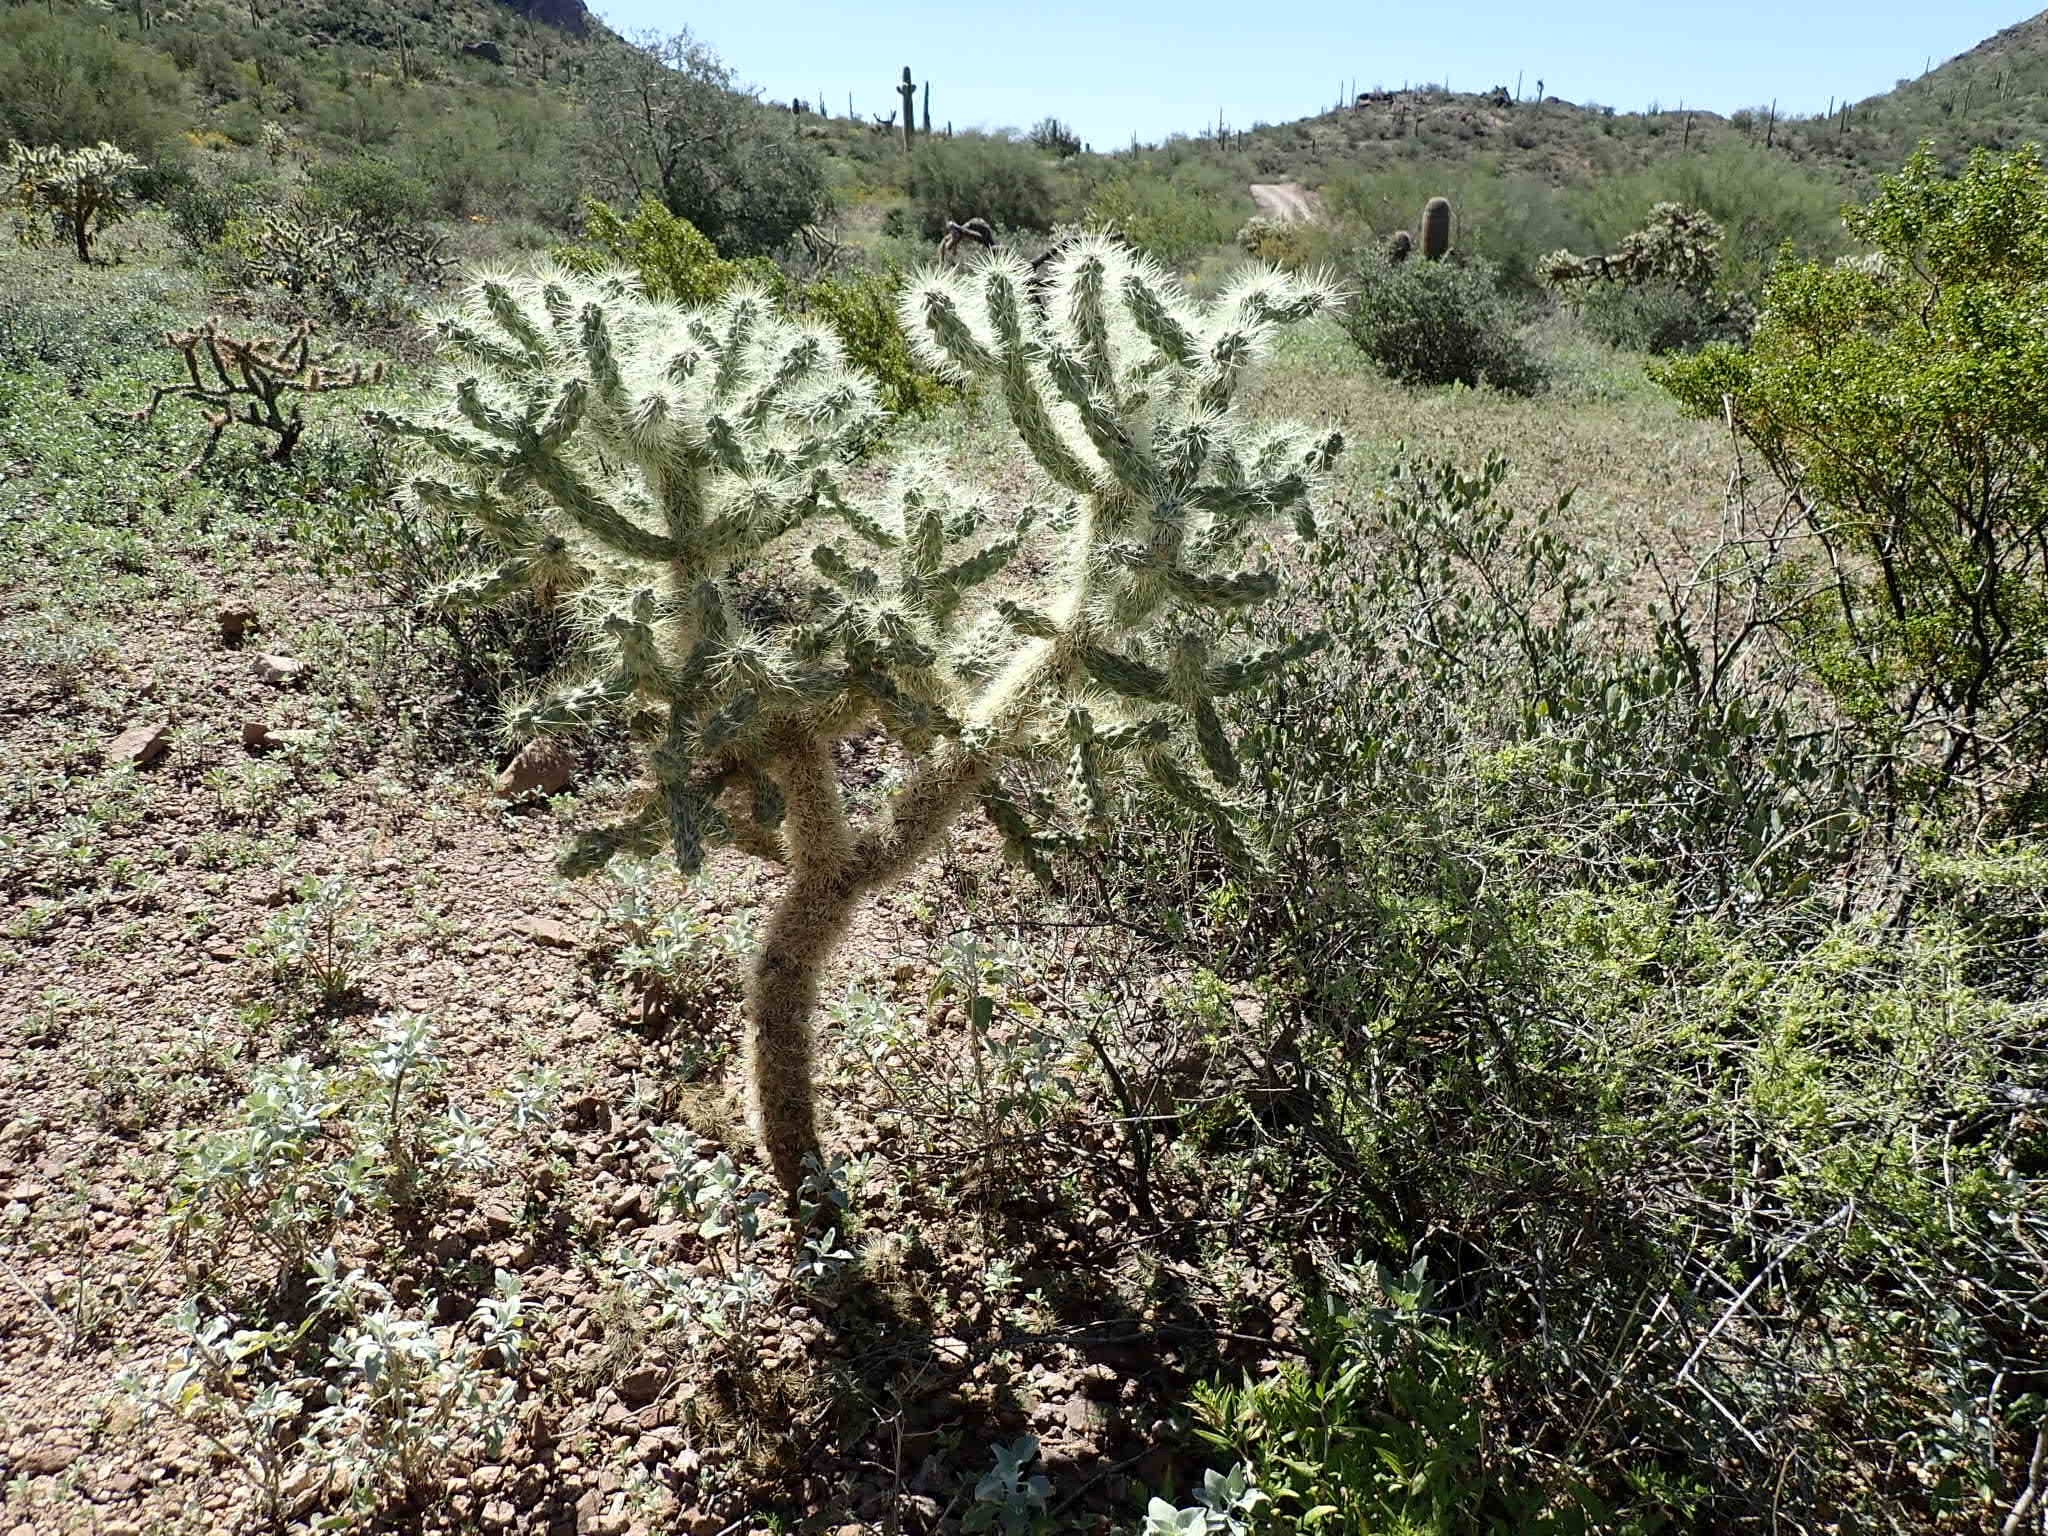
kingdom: Plantae
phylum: Tracheophyta
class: Magnoliopsida
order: Caryophyllales
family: Cactaceae
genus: Cylindropuntia
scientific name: Cylindropuntia fulgida
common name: Jumping cholla
